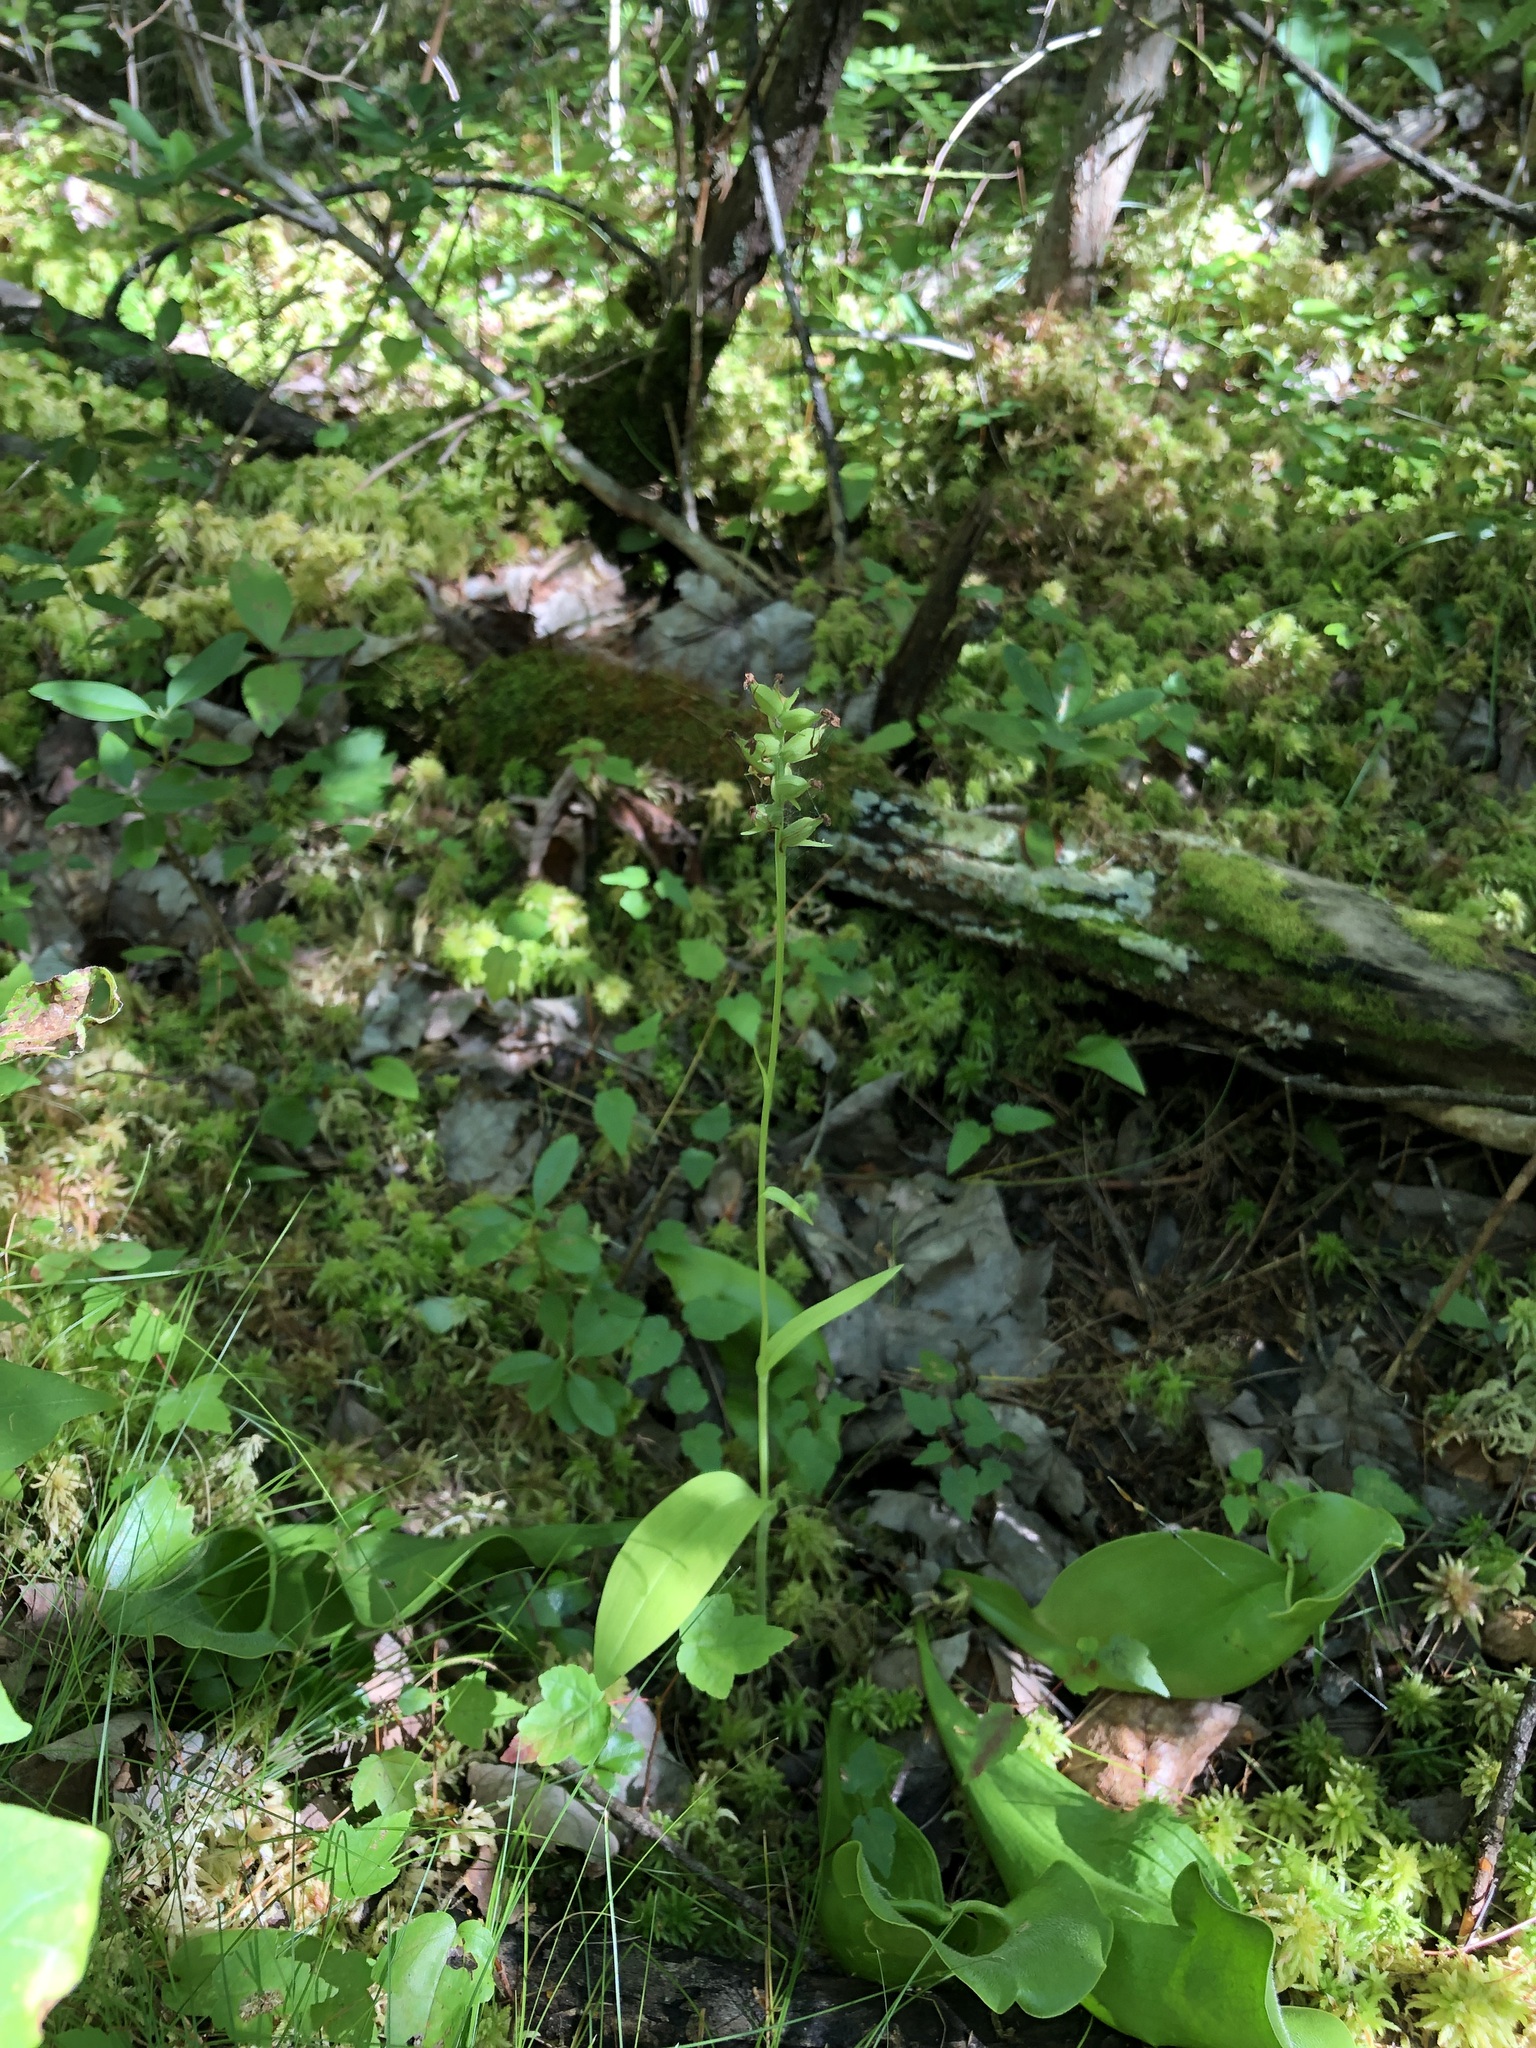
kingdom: Plantae
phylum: Tracheophyta
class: Liliopsida
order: Asparagales
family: Orchidaceae
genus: Platanthera
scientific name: Platanthera clavellata
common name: Club-spur orchid
